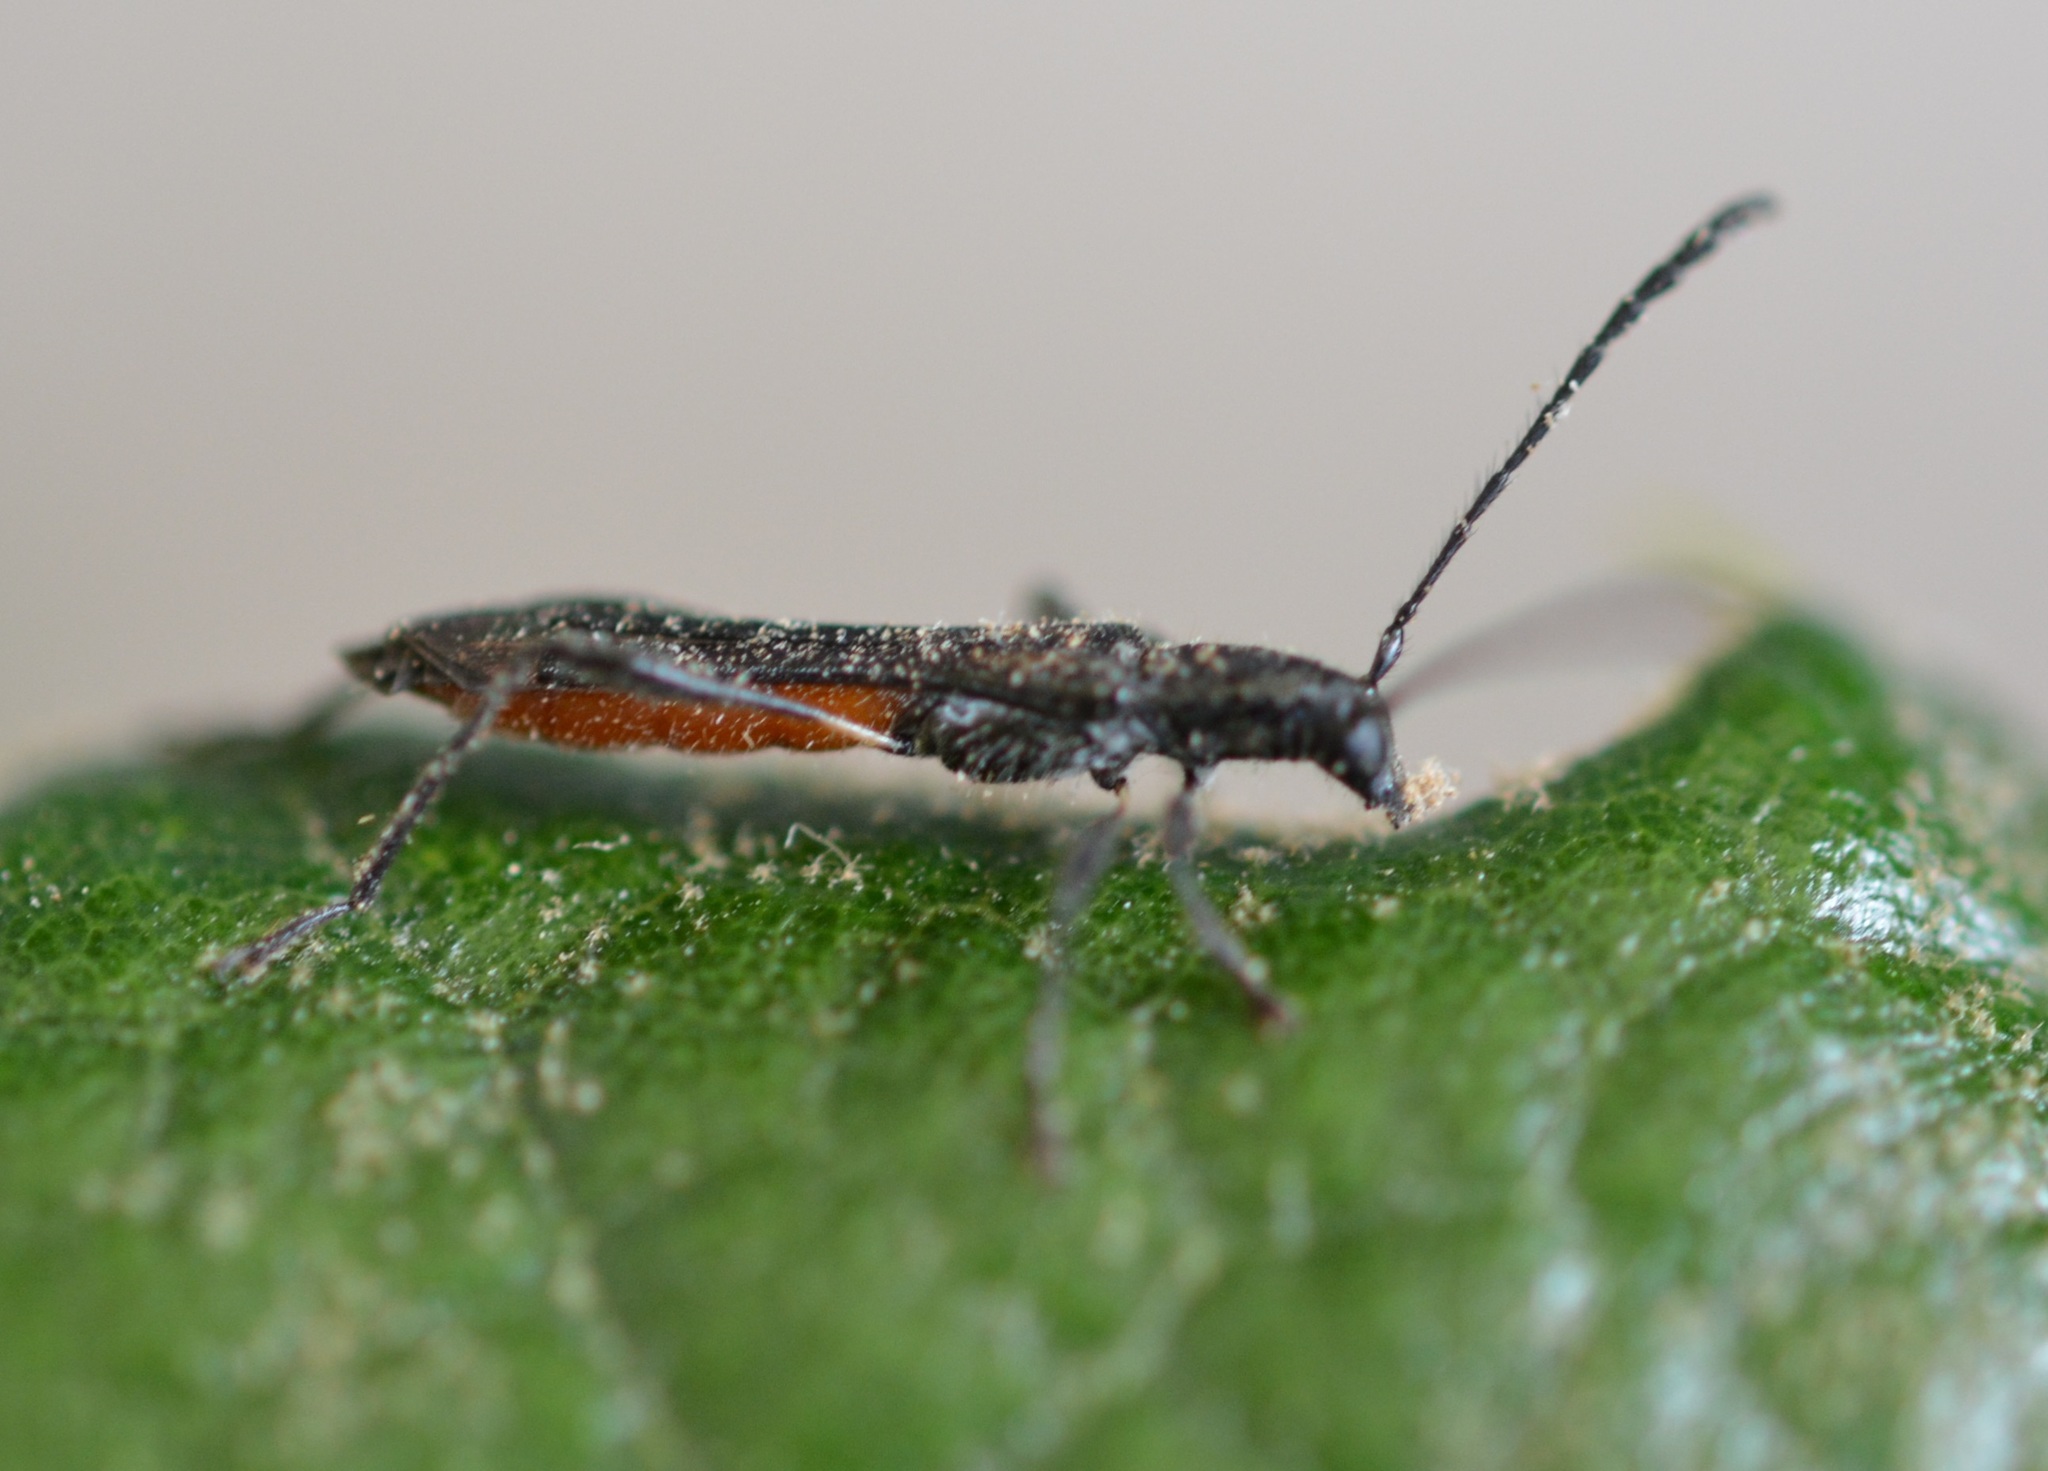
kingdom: Animalia
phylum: Arthropoda
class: Insecta
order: Coleoptera
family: Cerambycidae
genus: Eclipta
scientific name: Eclipta championella
